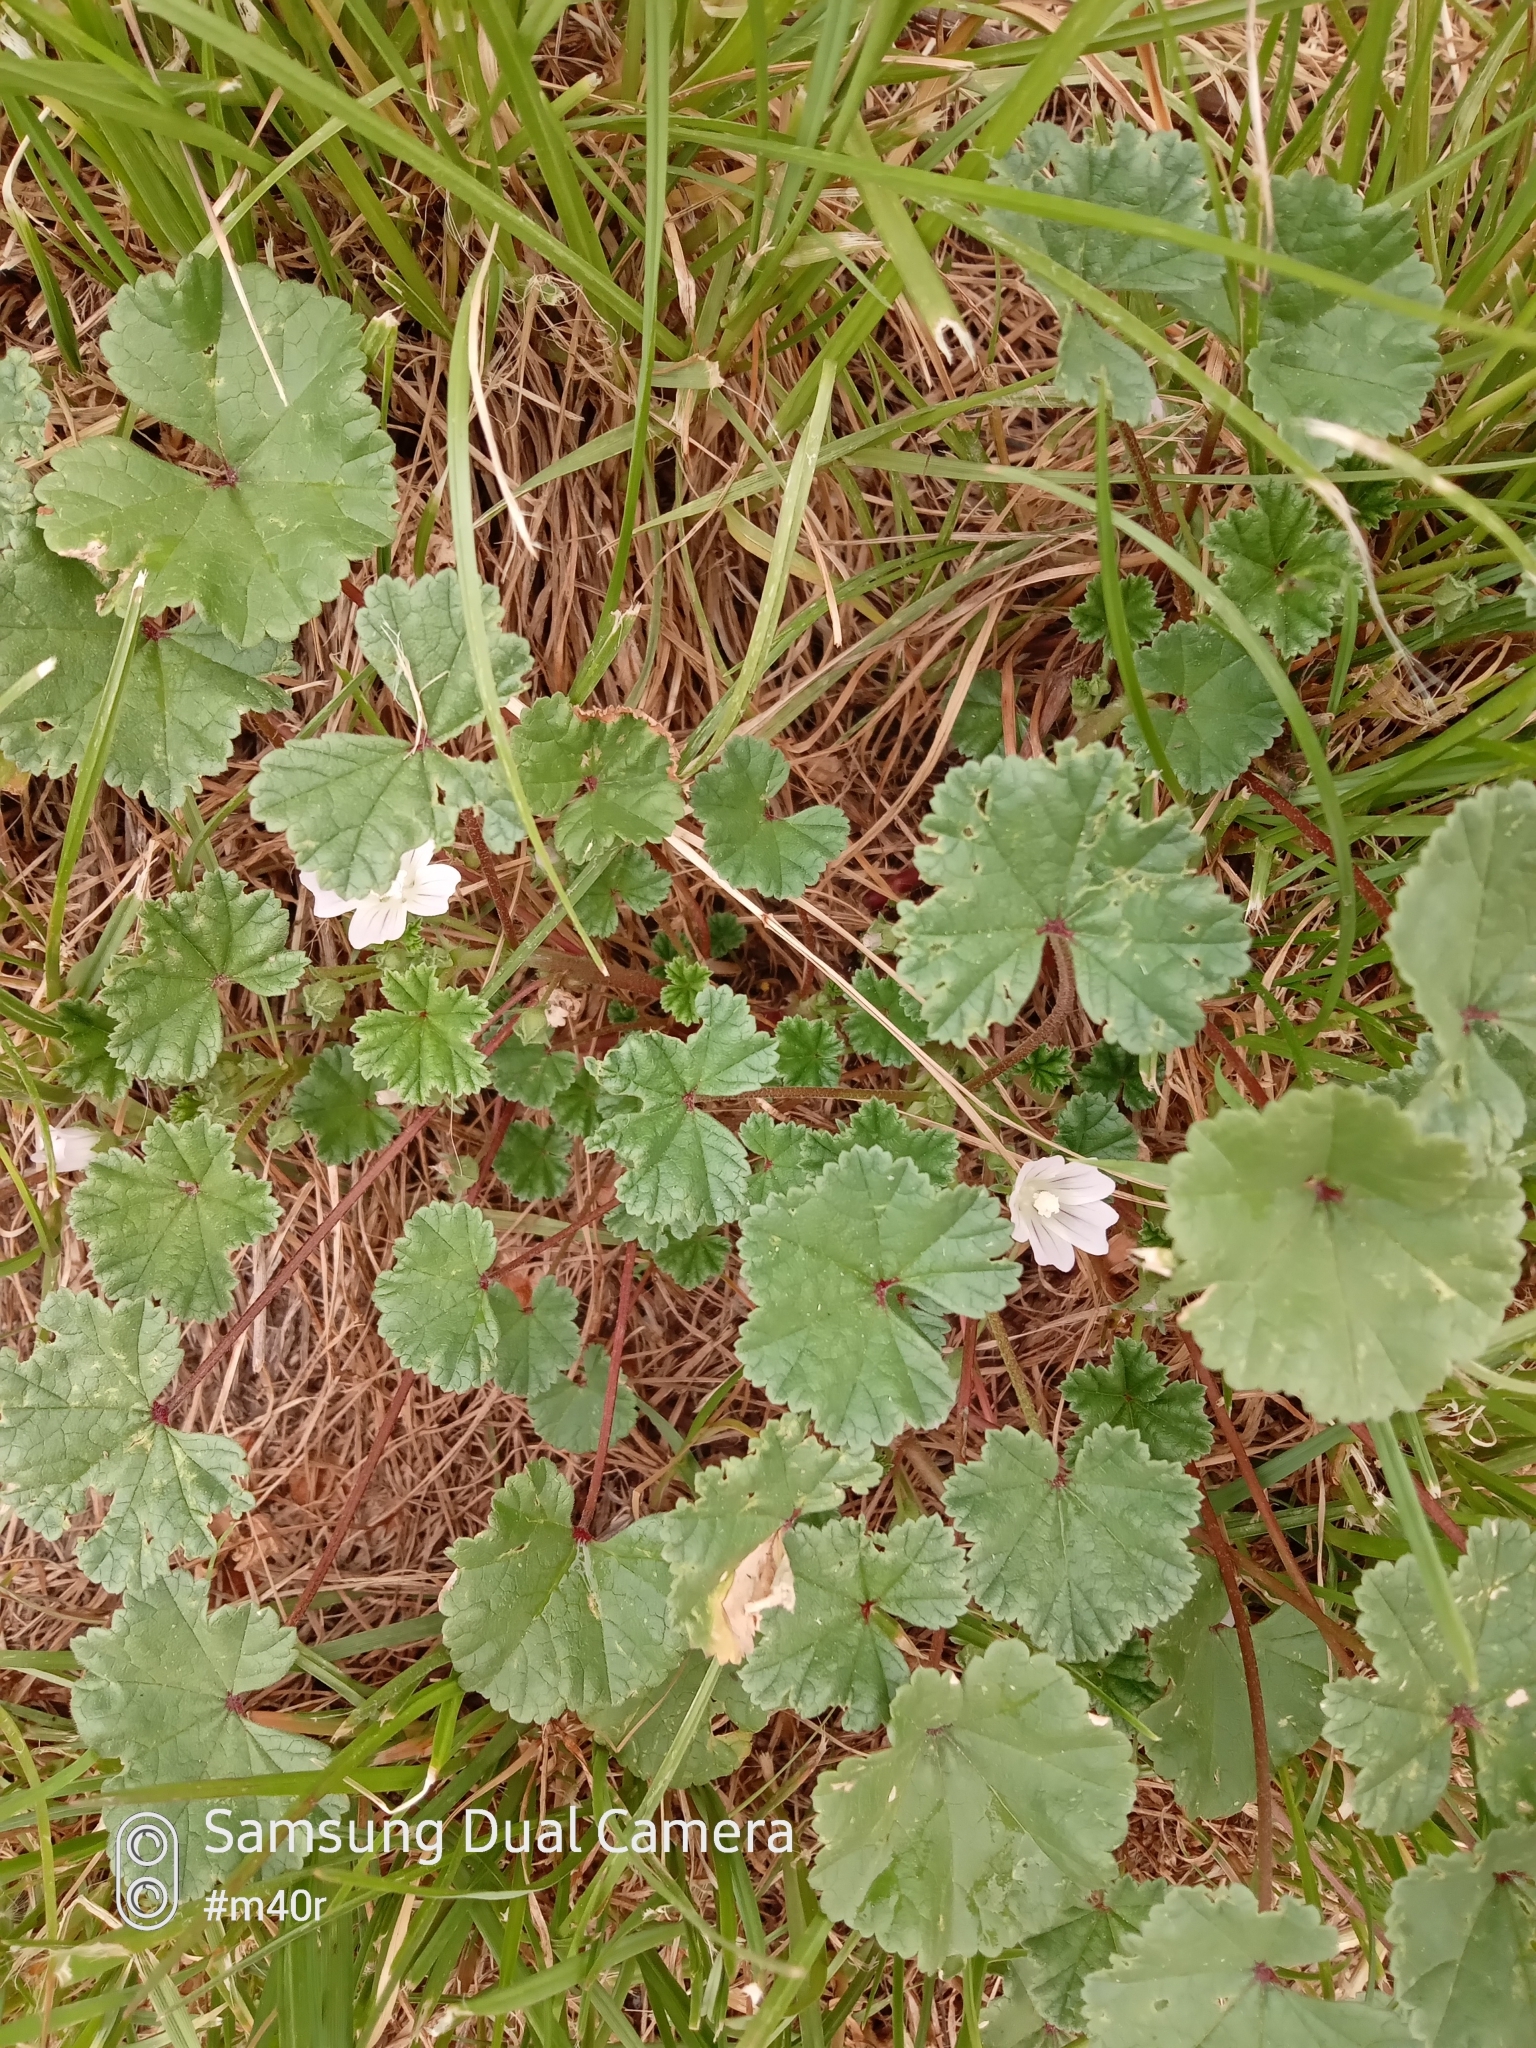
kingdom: Plantae
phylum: Tracheophyta
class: Magnoliopsida
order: Malvales
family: Malvaceae
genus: Malva
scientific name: Malva neglecta
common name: Common mallow
